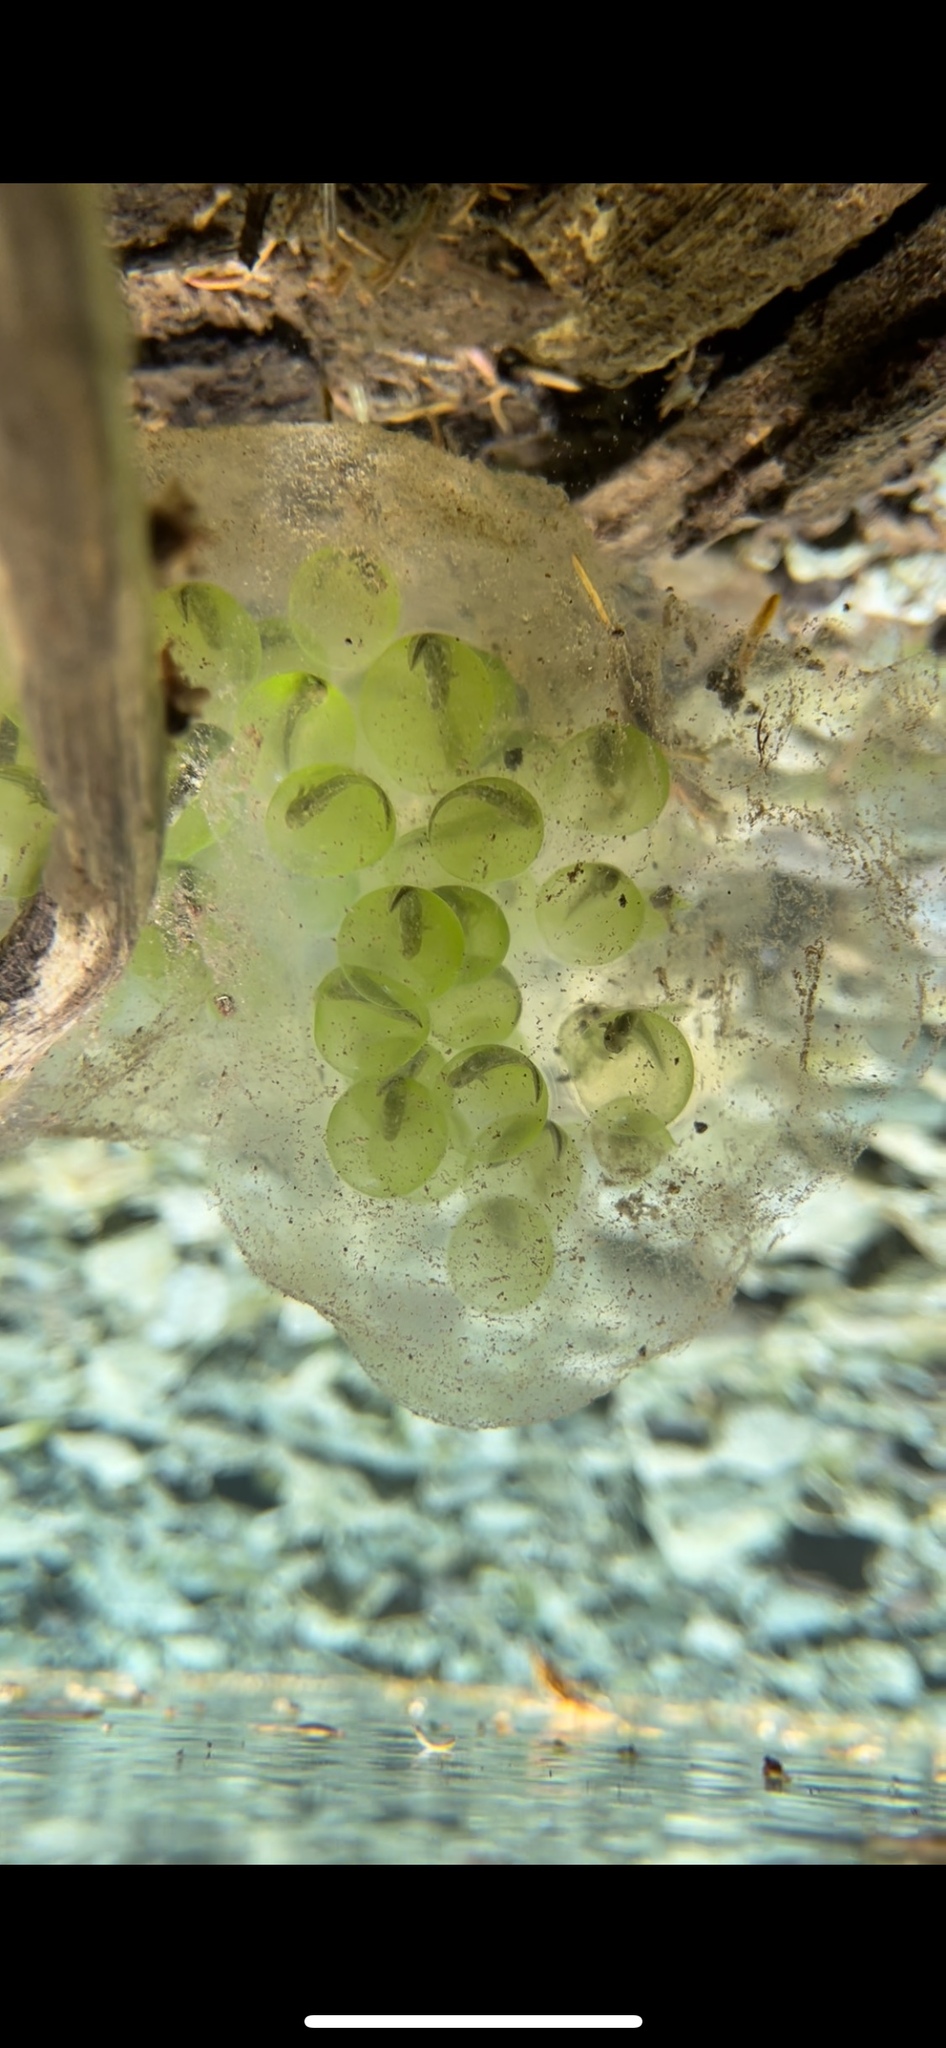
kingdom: Animalia
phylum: Chordata
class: Amphibia
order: Caudata
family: Ambystomatidae
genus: Ambystoma
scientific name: Ambystoma gracile
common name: Northwestern salamander
